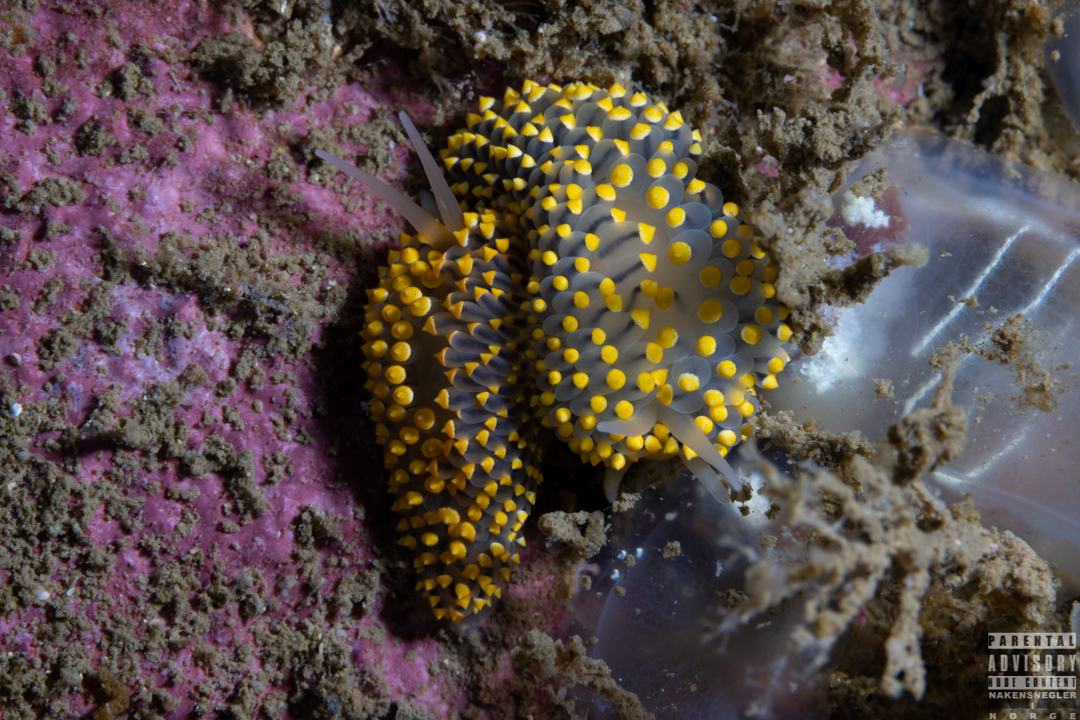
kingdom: Animalia
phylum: Mollusca
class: Gastropoda
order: Nudibranchia
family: Eubranchidae
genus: Eubranchus
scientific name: Eubranchus tricolor
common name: Painted balloon aeolis
